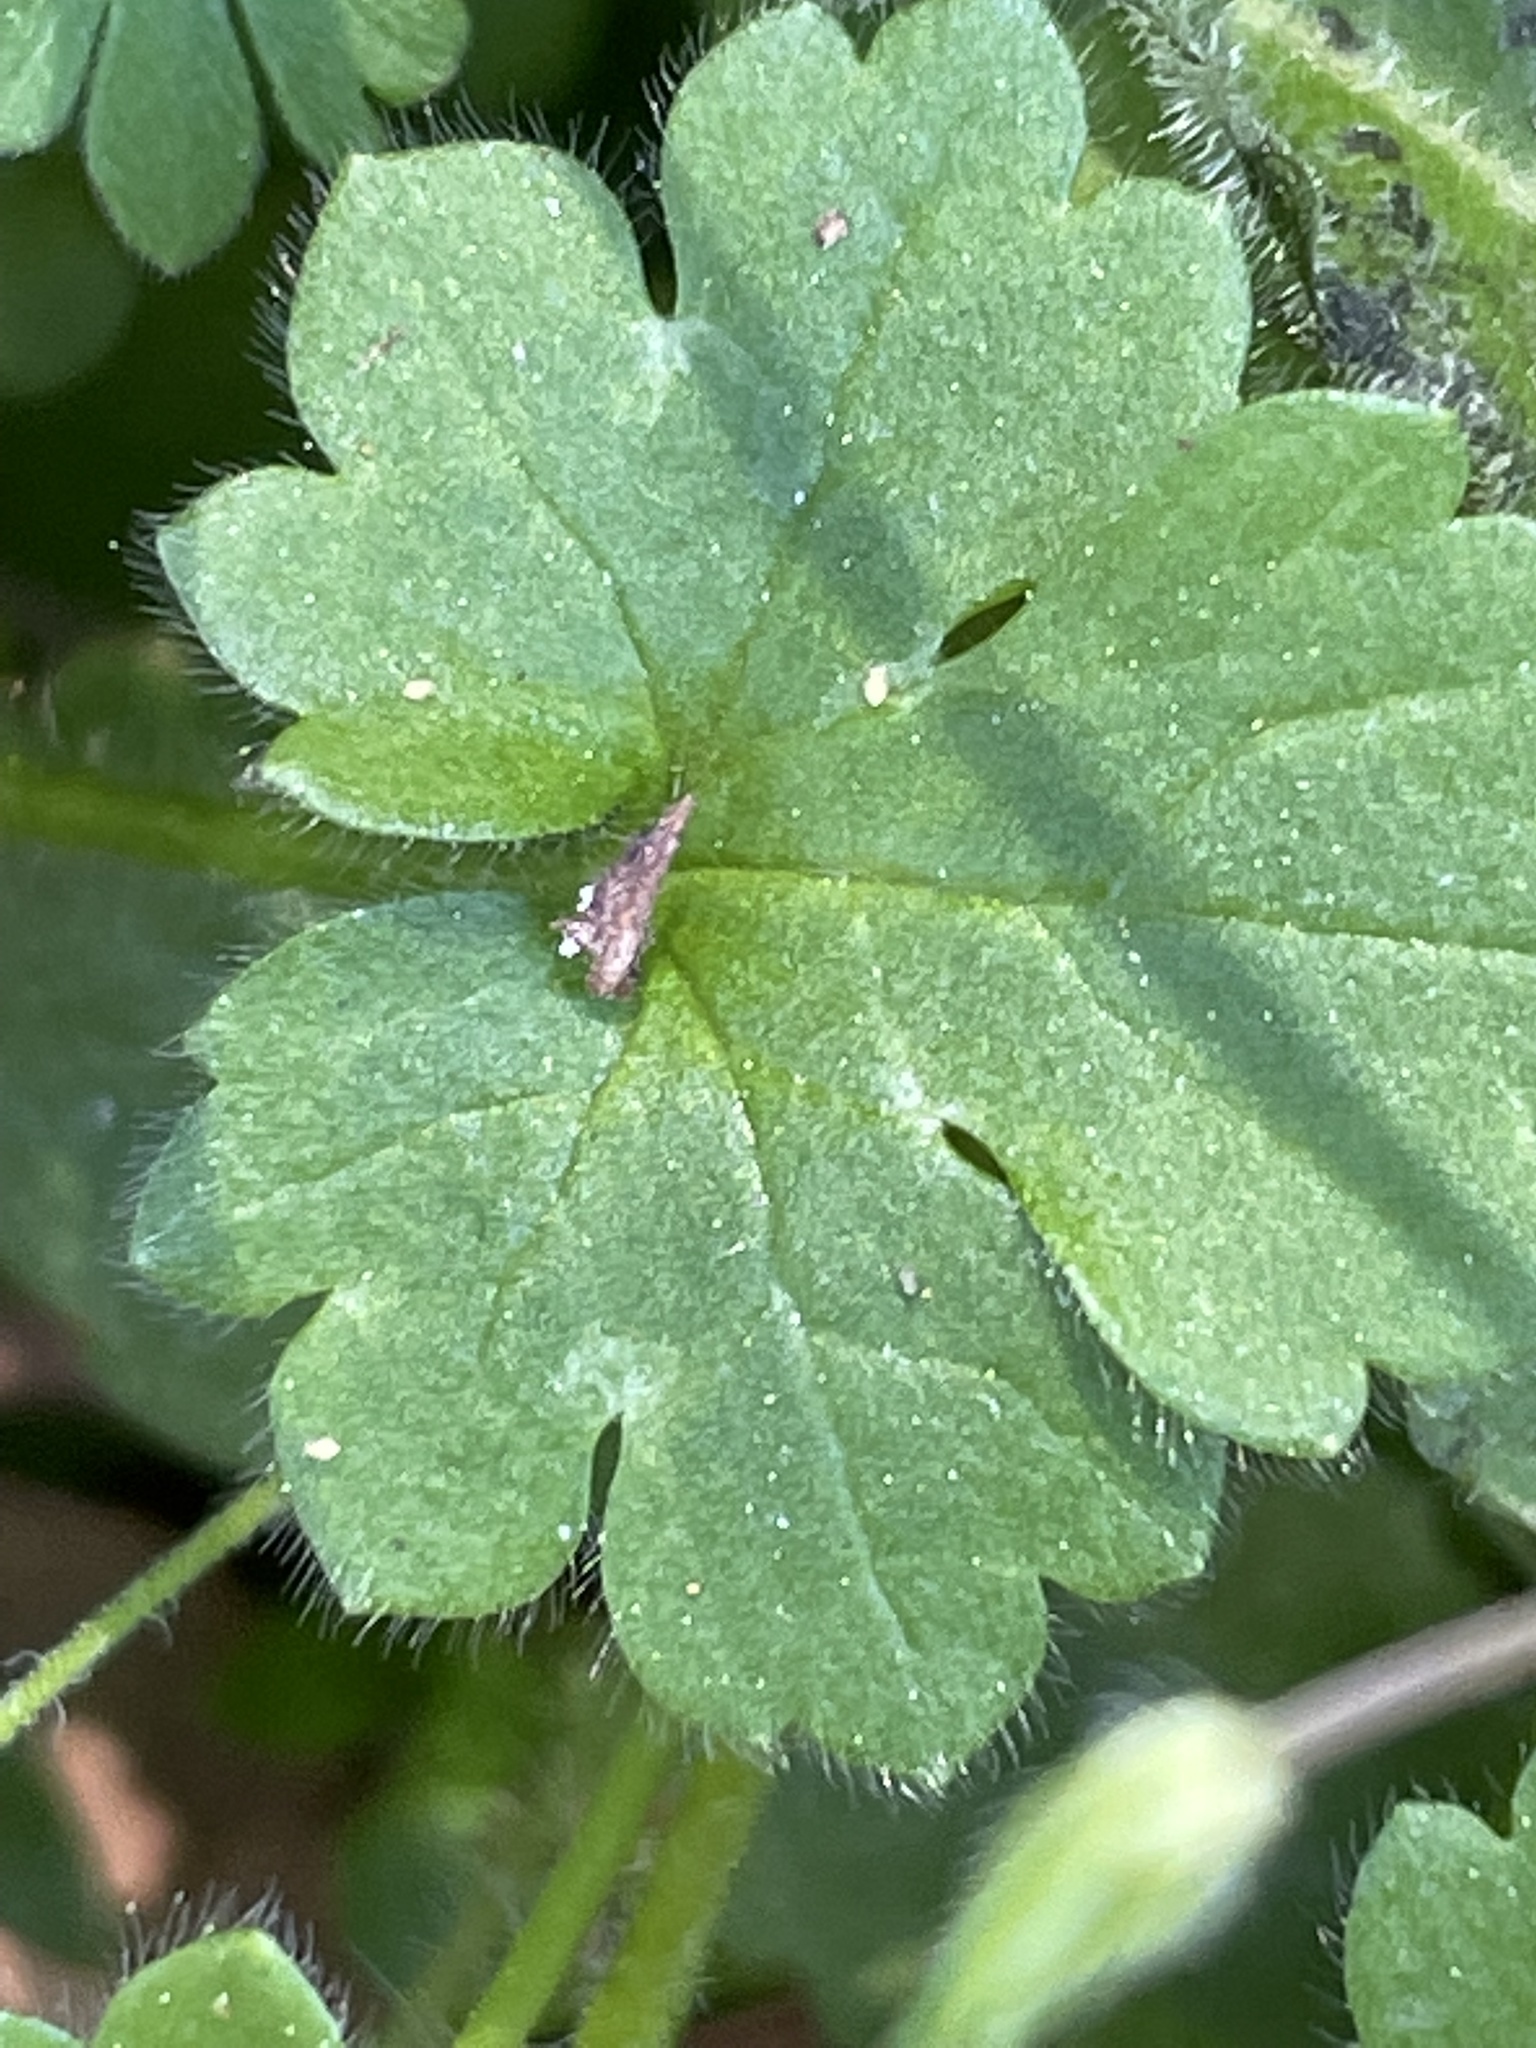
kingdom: Plantae
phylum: Tracheophyta
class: Magnoliopsida
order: Lamiales
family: Plantaginaceae
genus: Veronica
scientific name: Veronica persica
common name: Common field-speedwell
